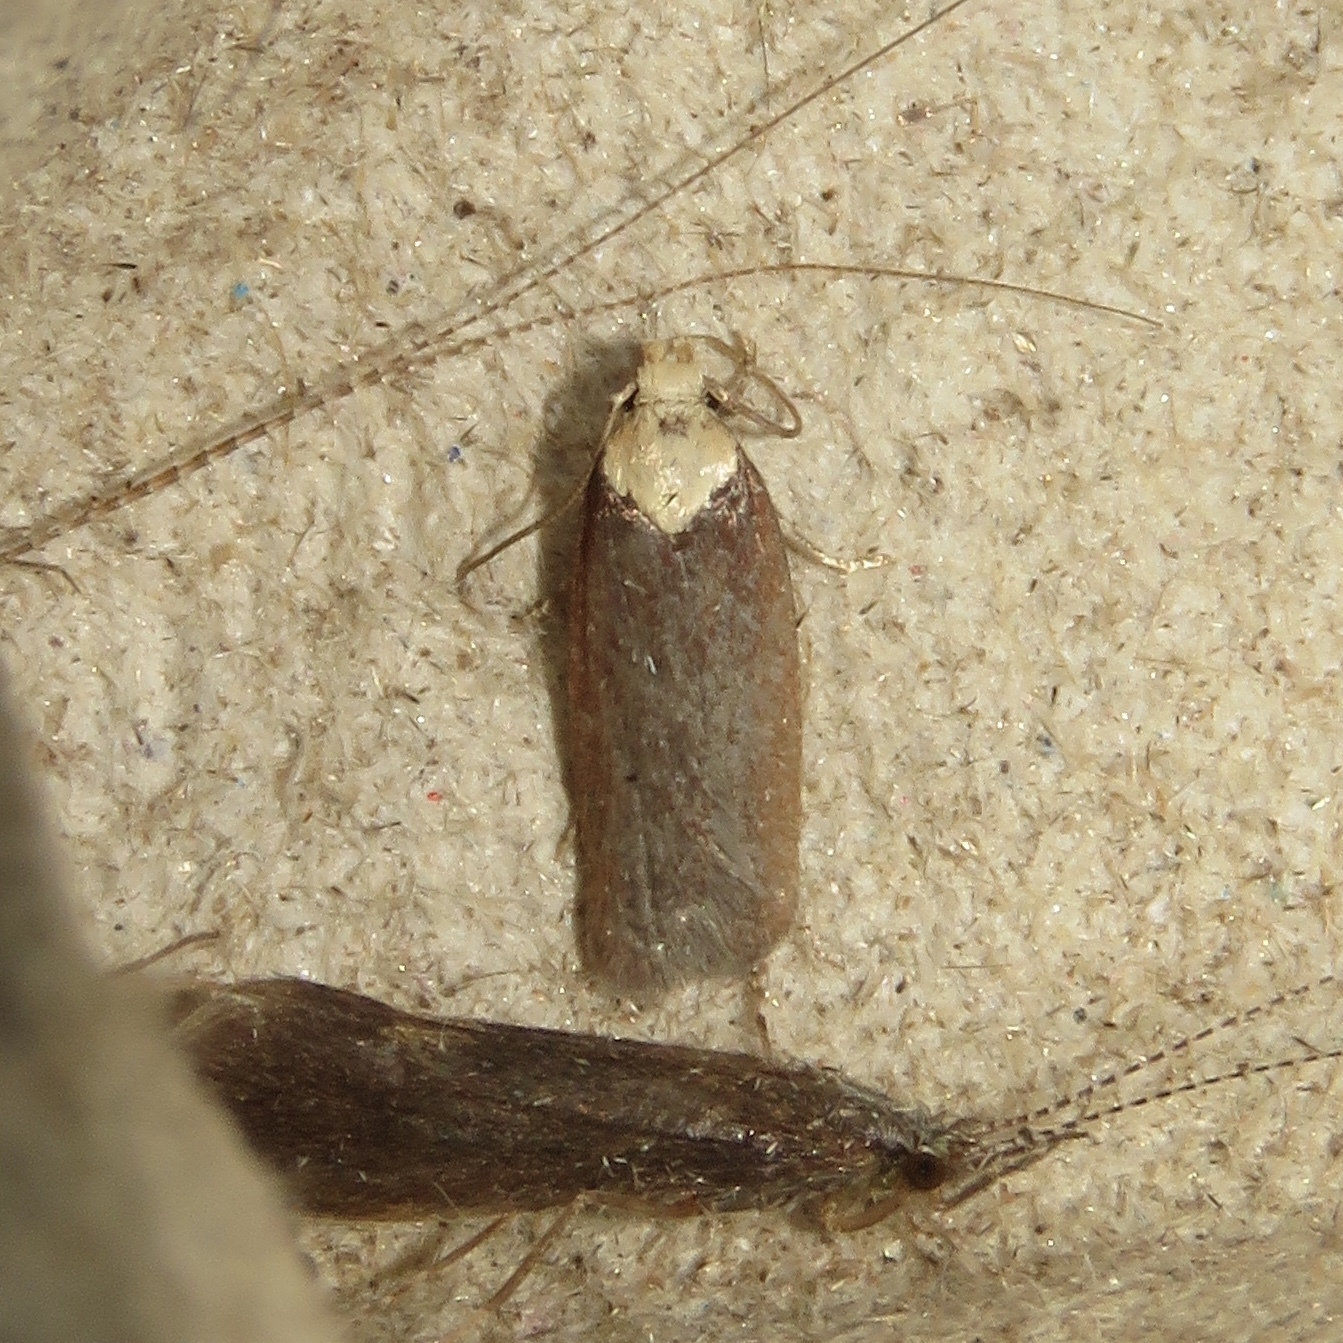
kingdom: Animalia
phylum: Arthropoda
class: Insecta
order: Lepidoptera
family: Depressariidae
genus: Depressaria
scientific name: Depressaria depressana
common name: Lost flat-body
